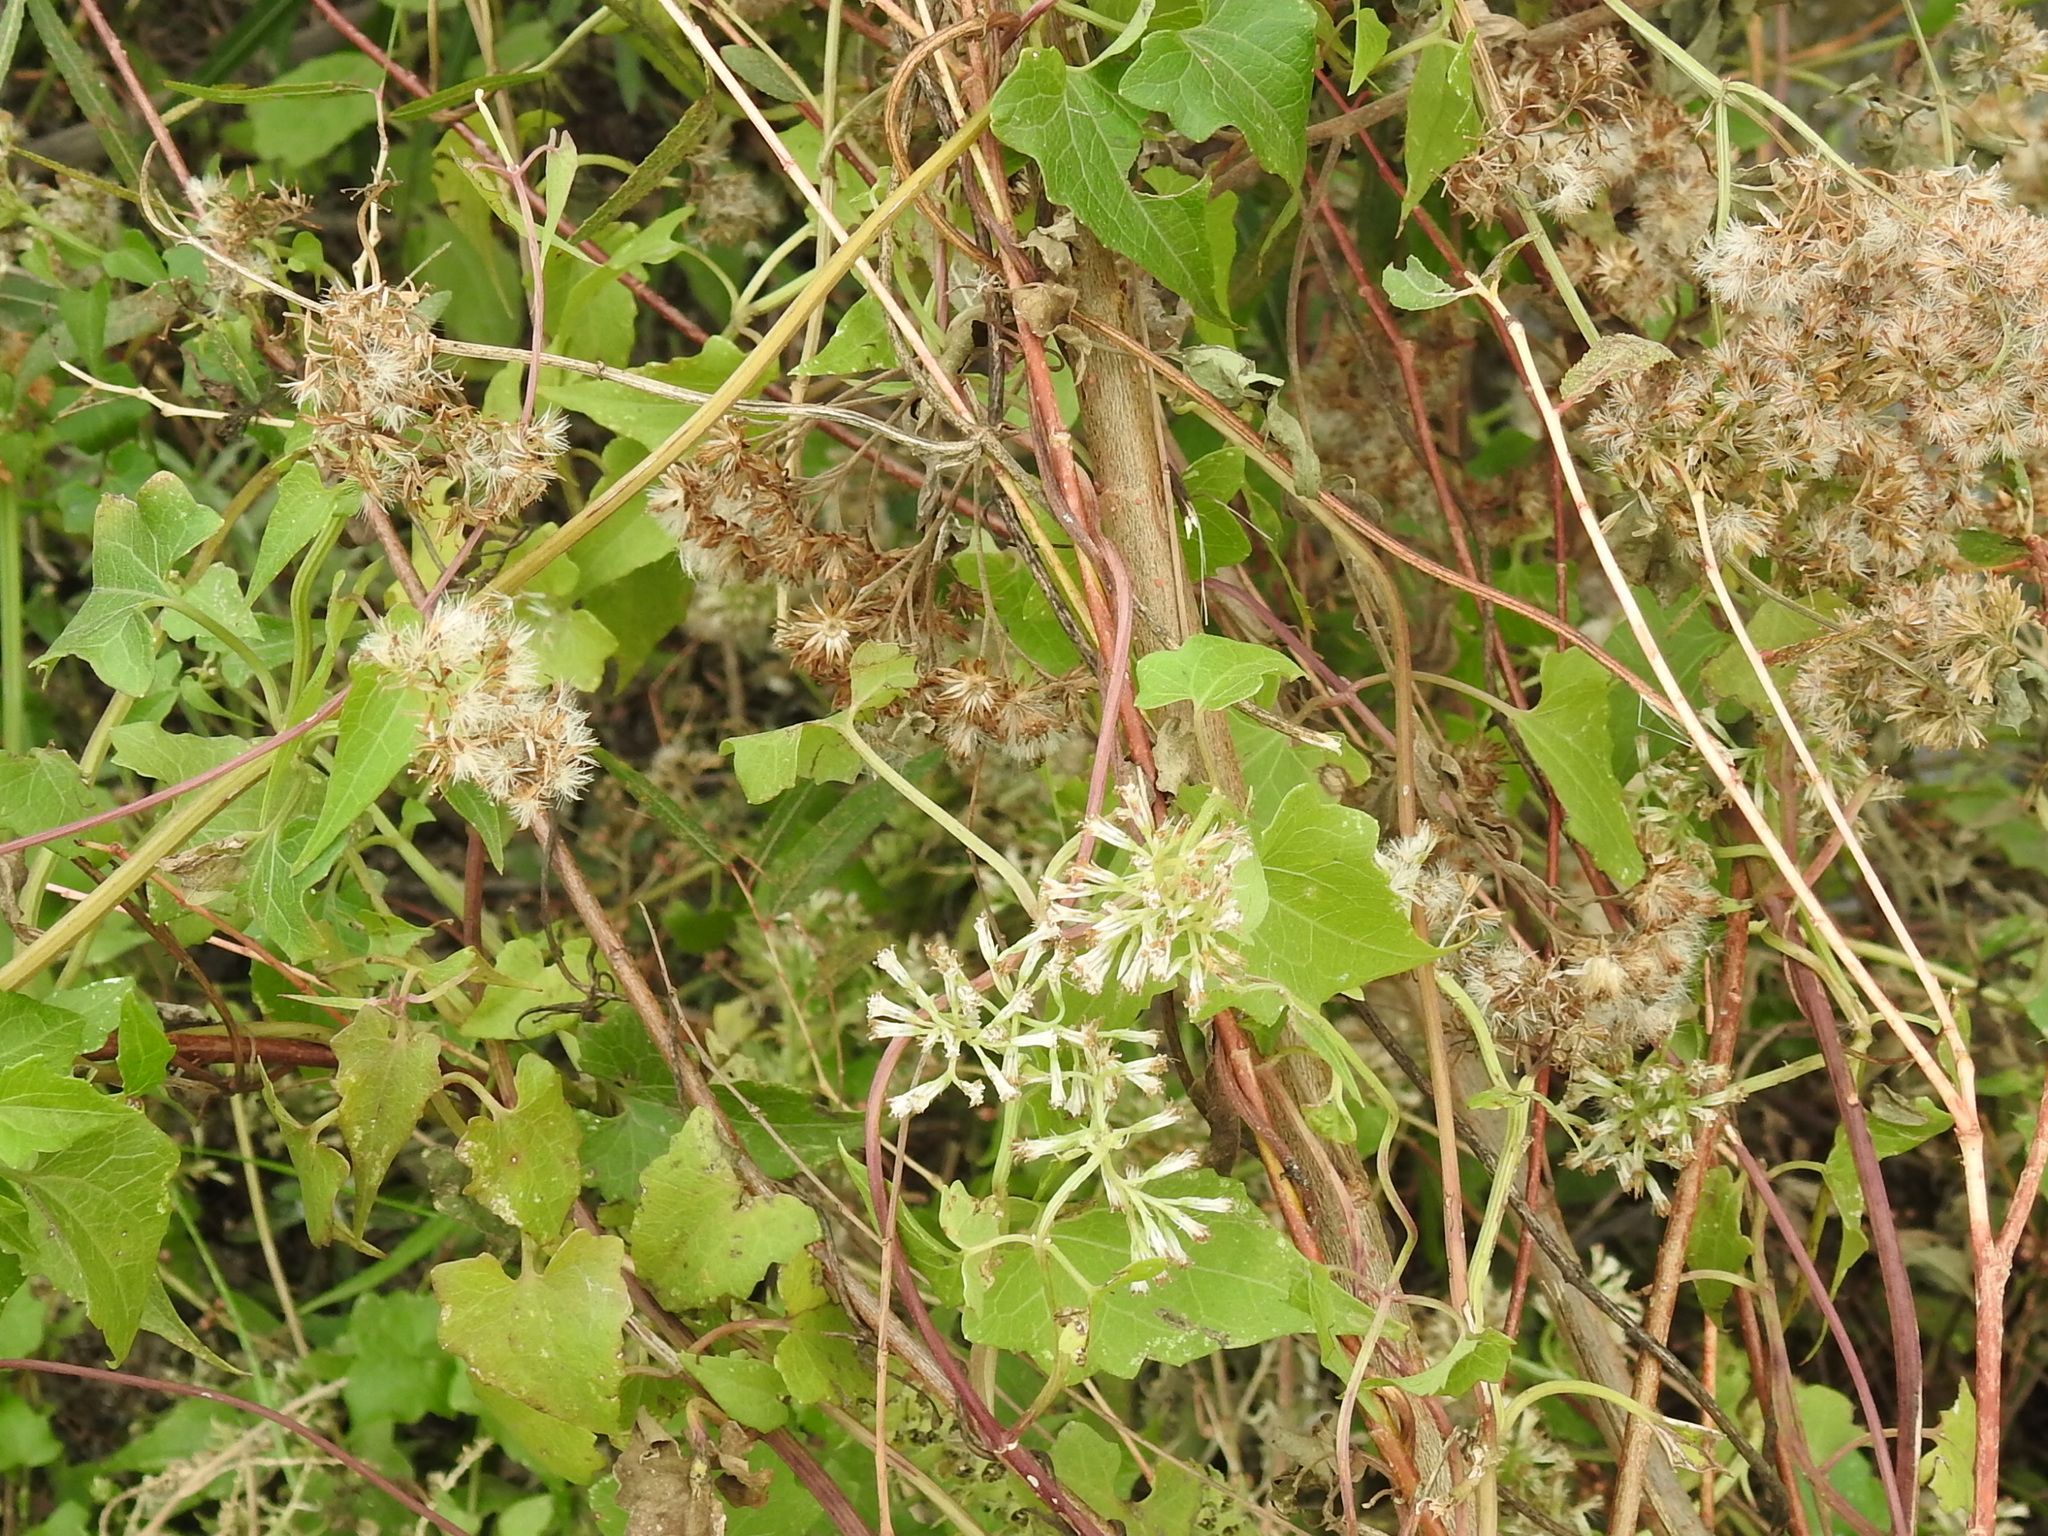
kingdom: Plantae
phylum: Tracheophyta
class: Magnoliopsida
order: Asterales
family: Asteraceae
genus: Mikania
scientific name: Mikania scandens
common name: Climbing hempvine
